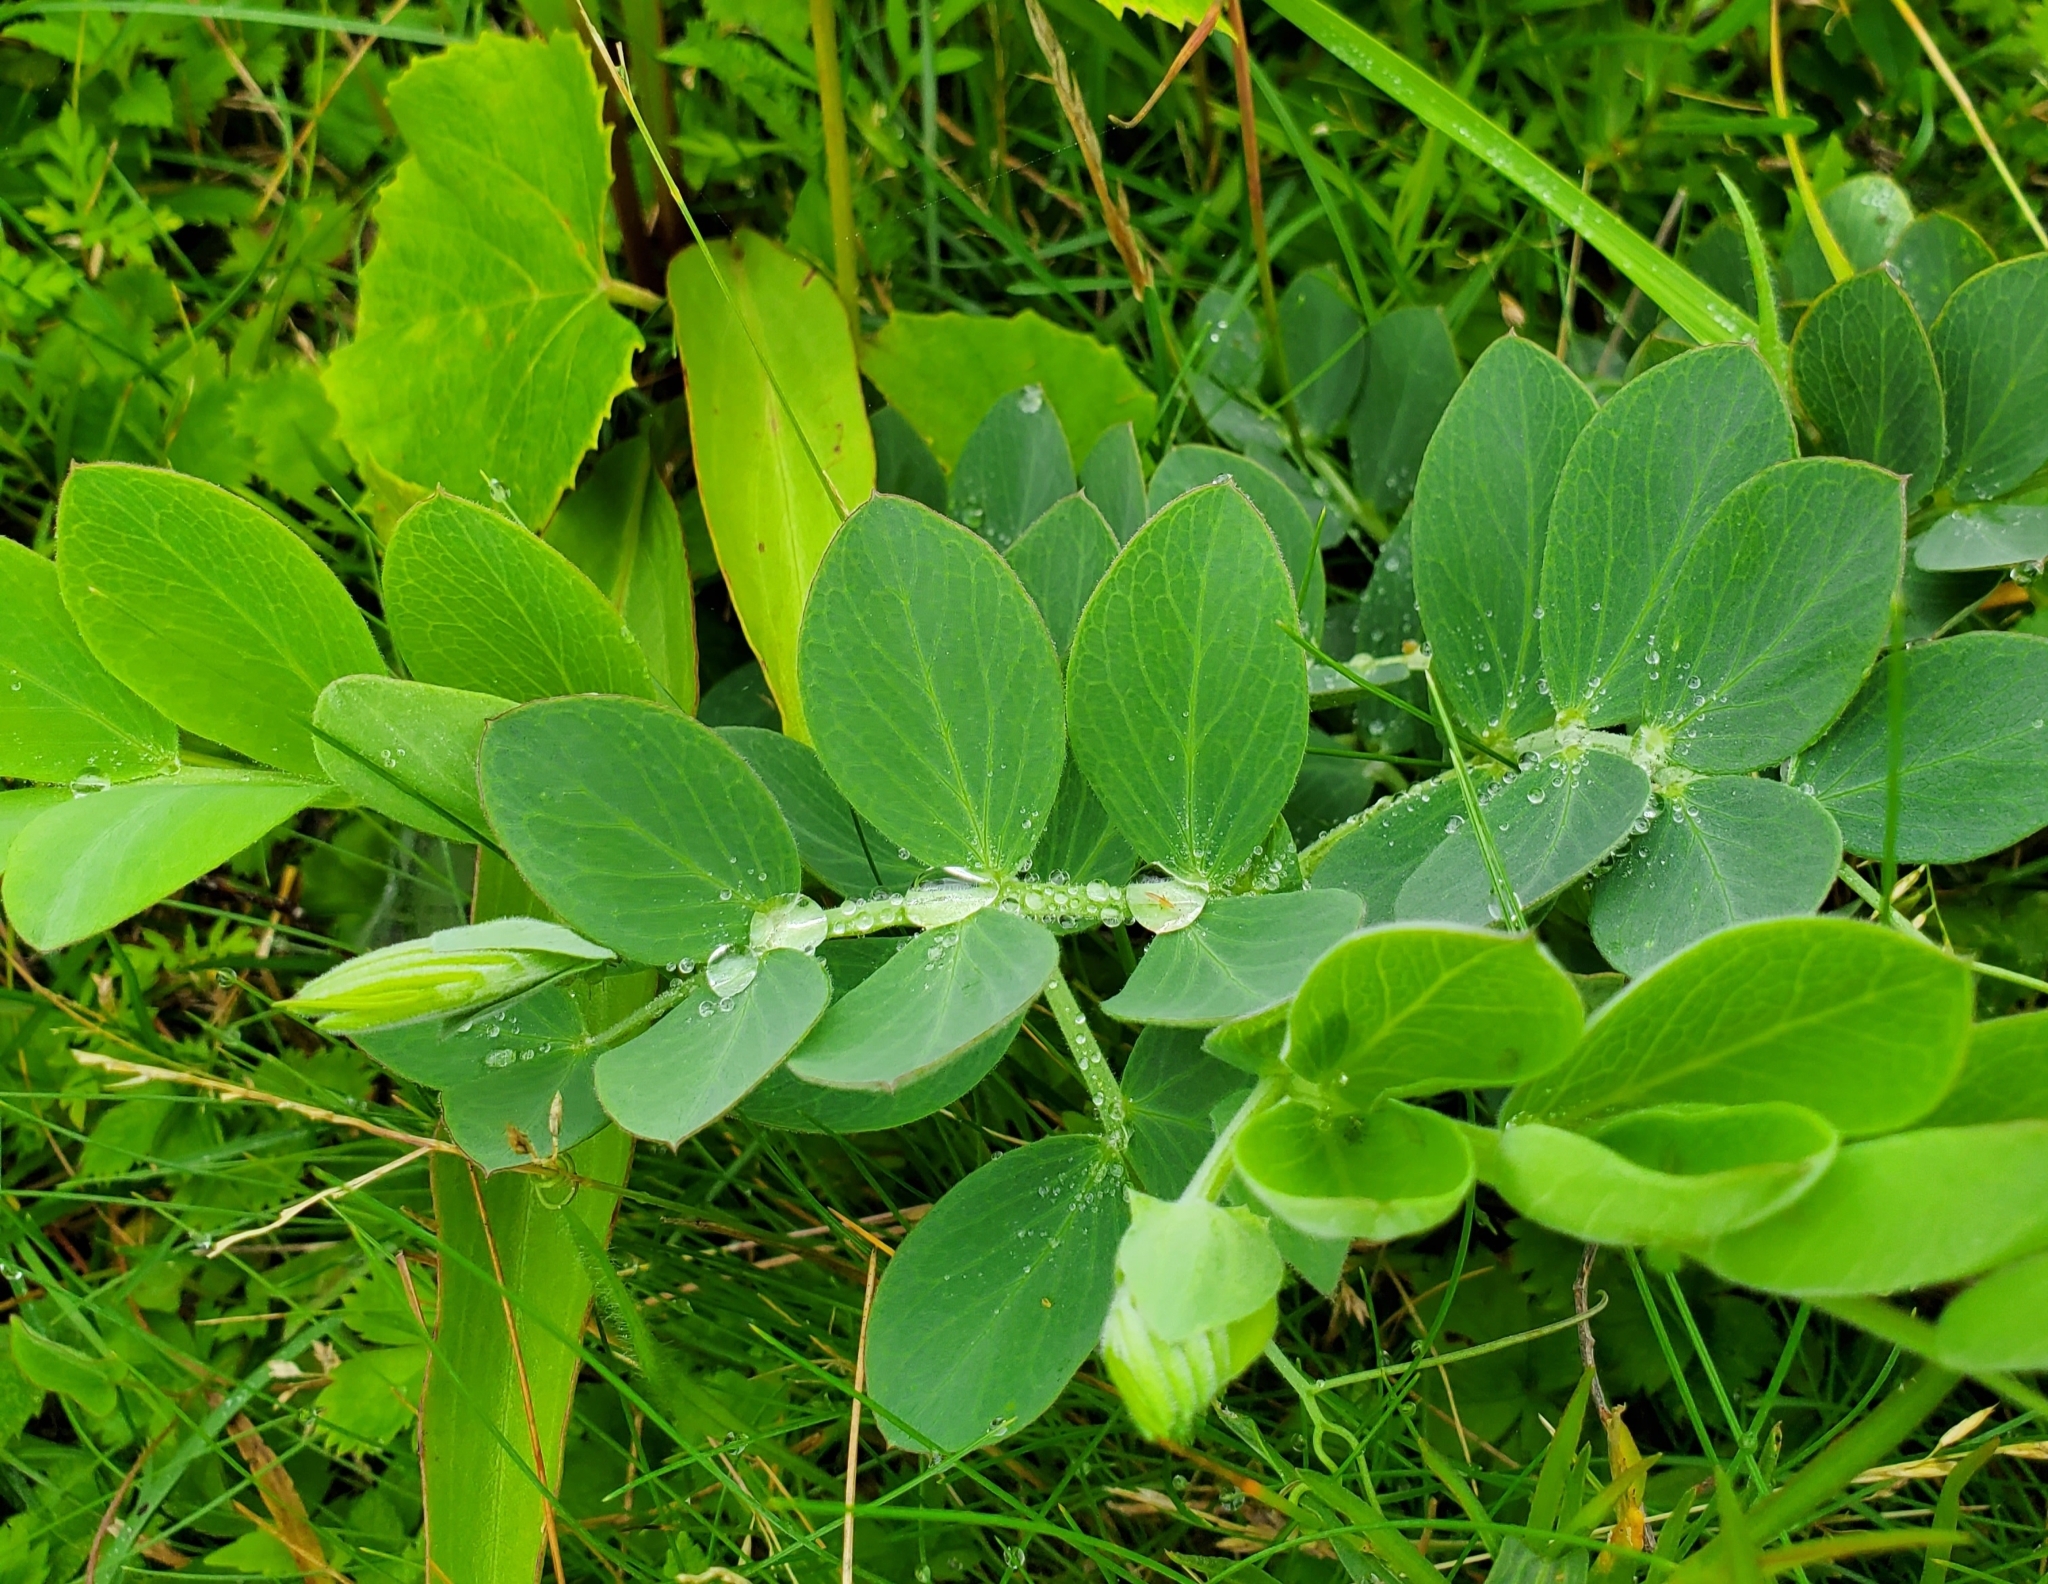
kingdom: Plantae
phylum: Tracheophyta
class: Magnoliopsida
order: Fabales
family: Fabaceae
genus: Lathyrus
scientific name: Lathyrus japonicus
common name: Sea pea
